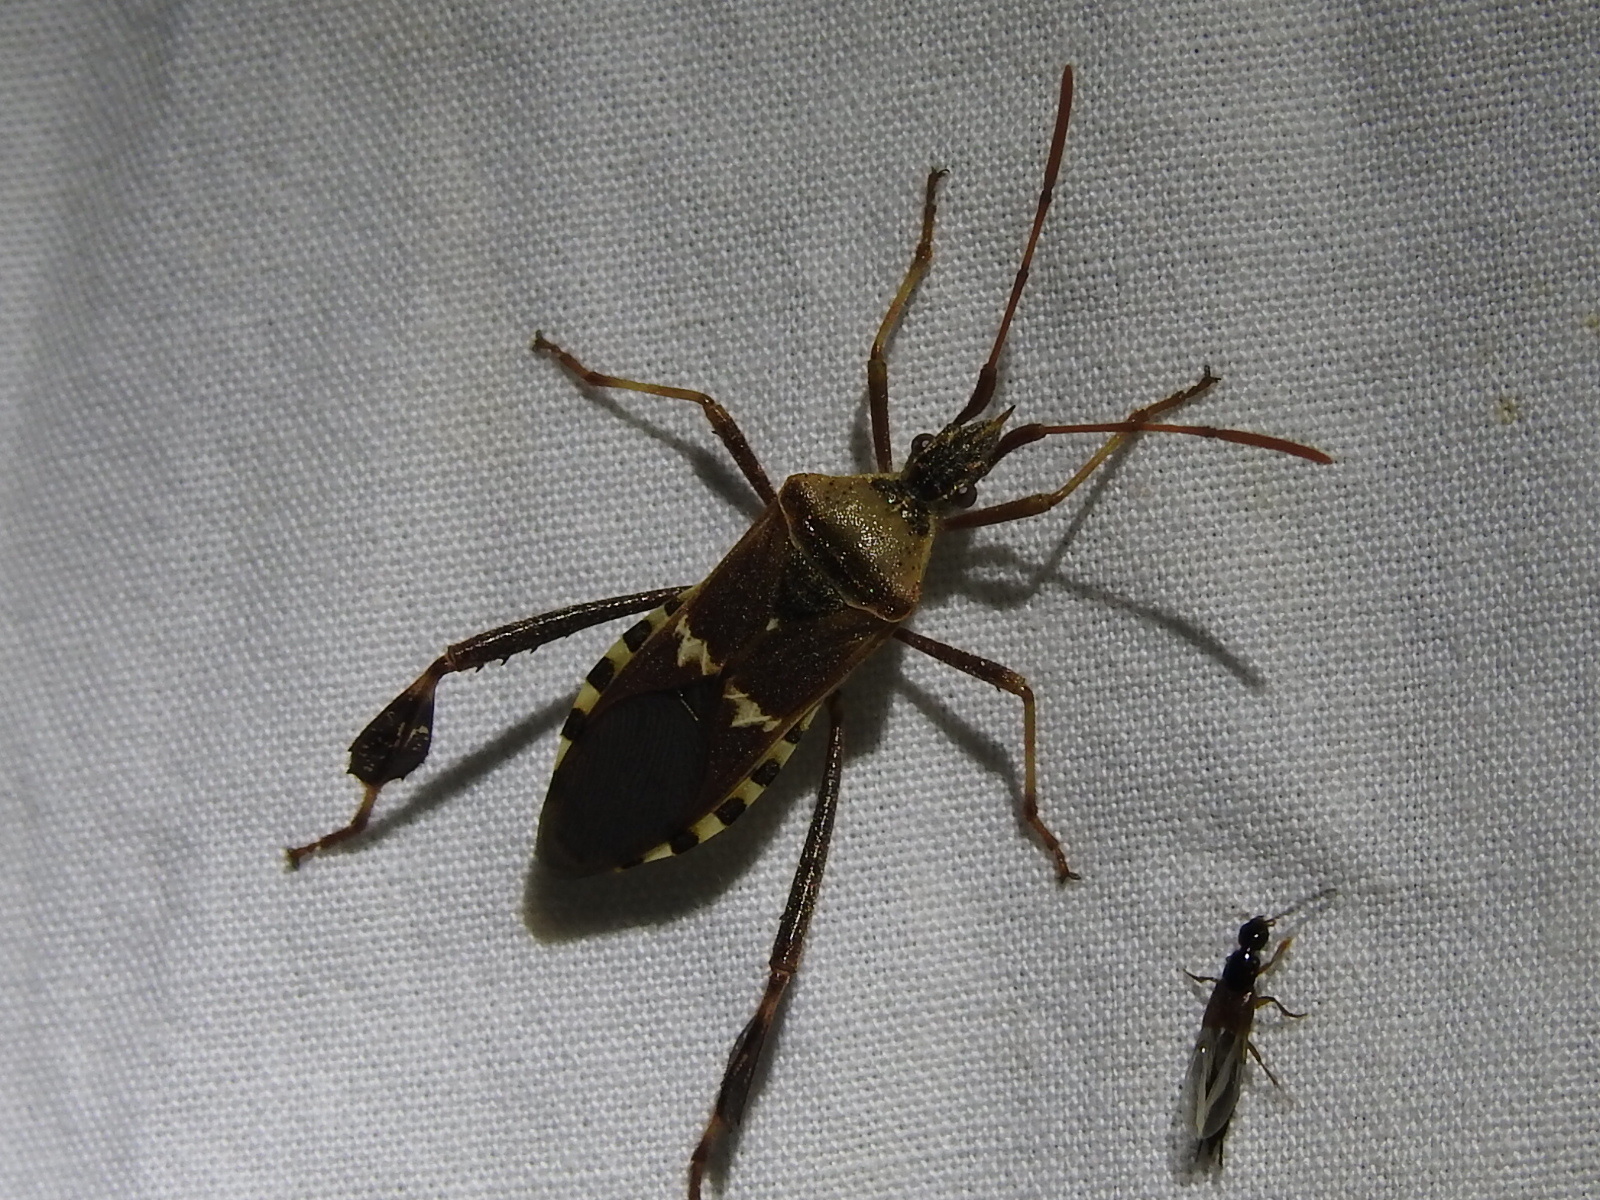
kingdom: Animalia
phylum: Arthropoda
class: Insecta
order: Hemiptera
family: Coreidae
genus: Leptoglossus
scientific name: Leptoglossus clypealis
